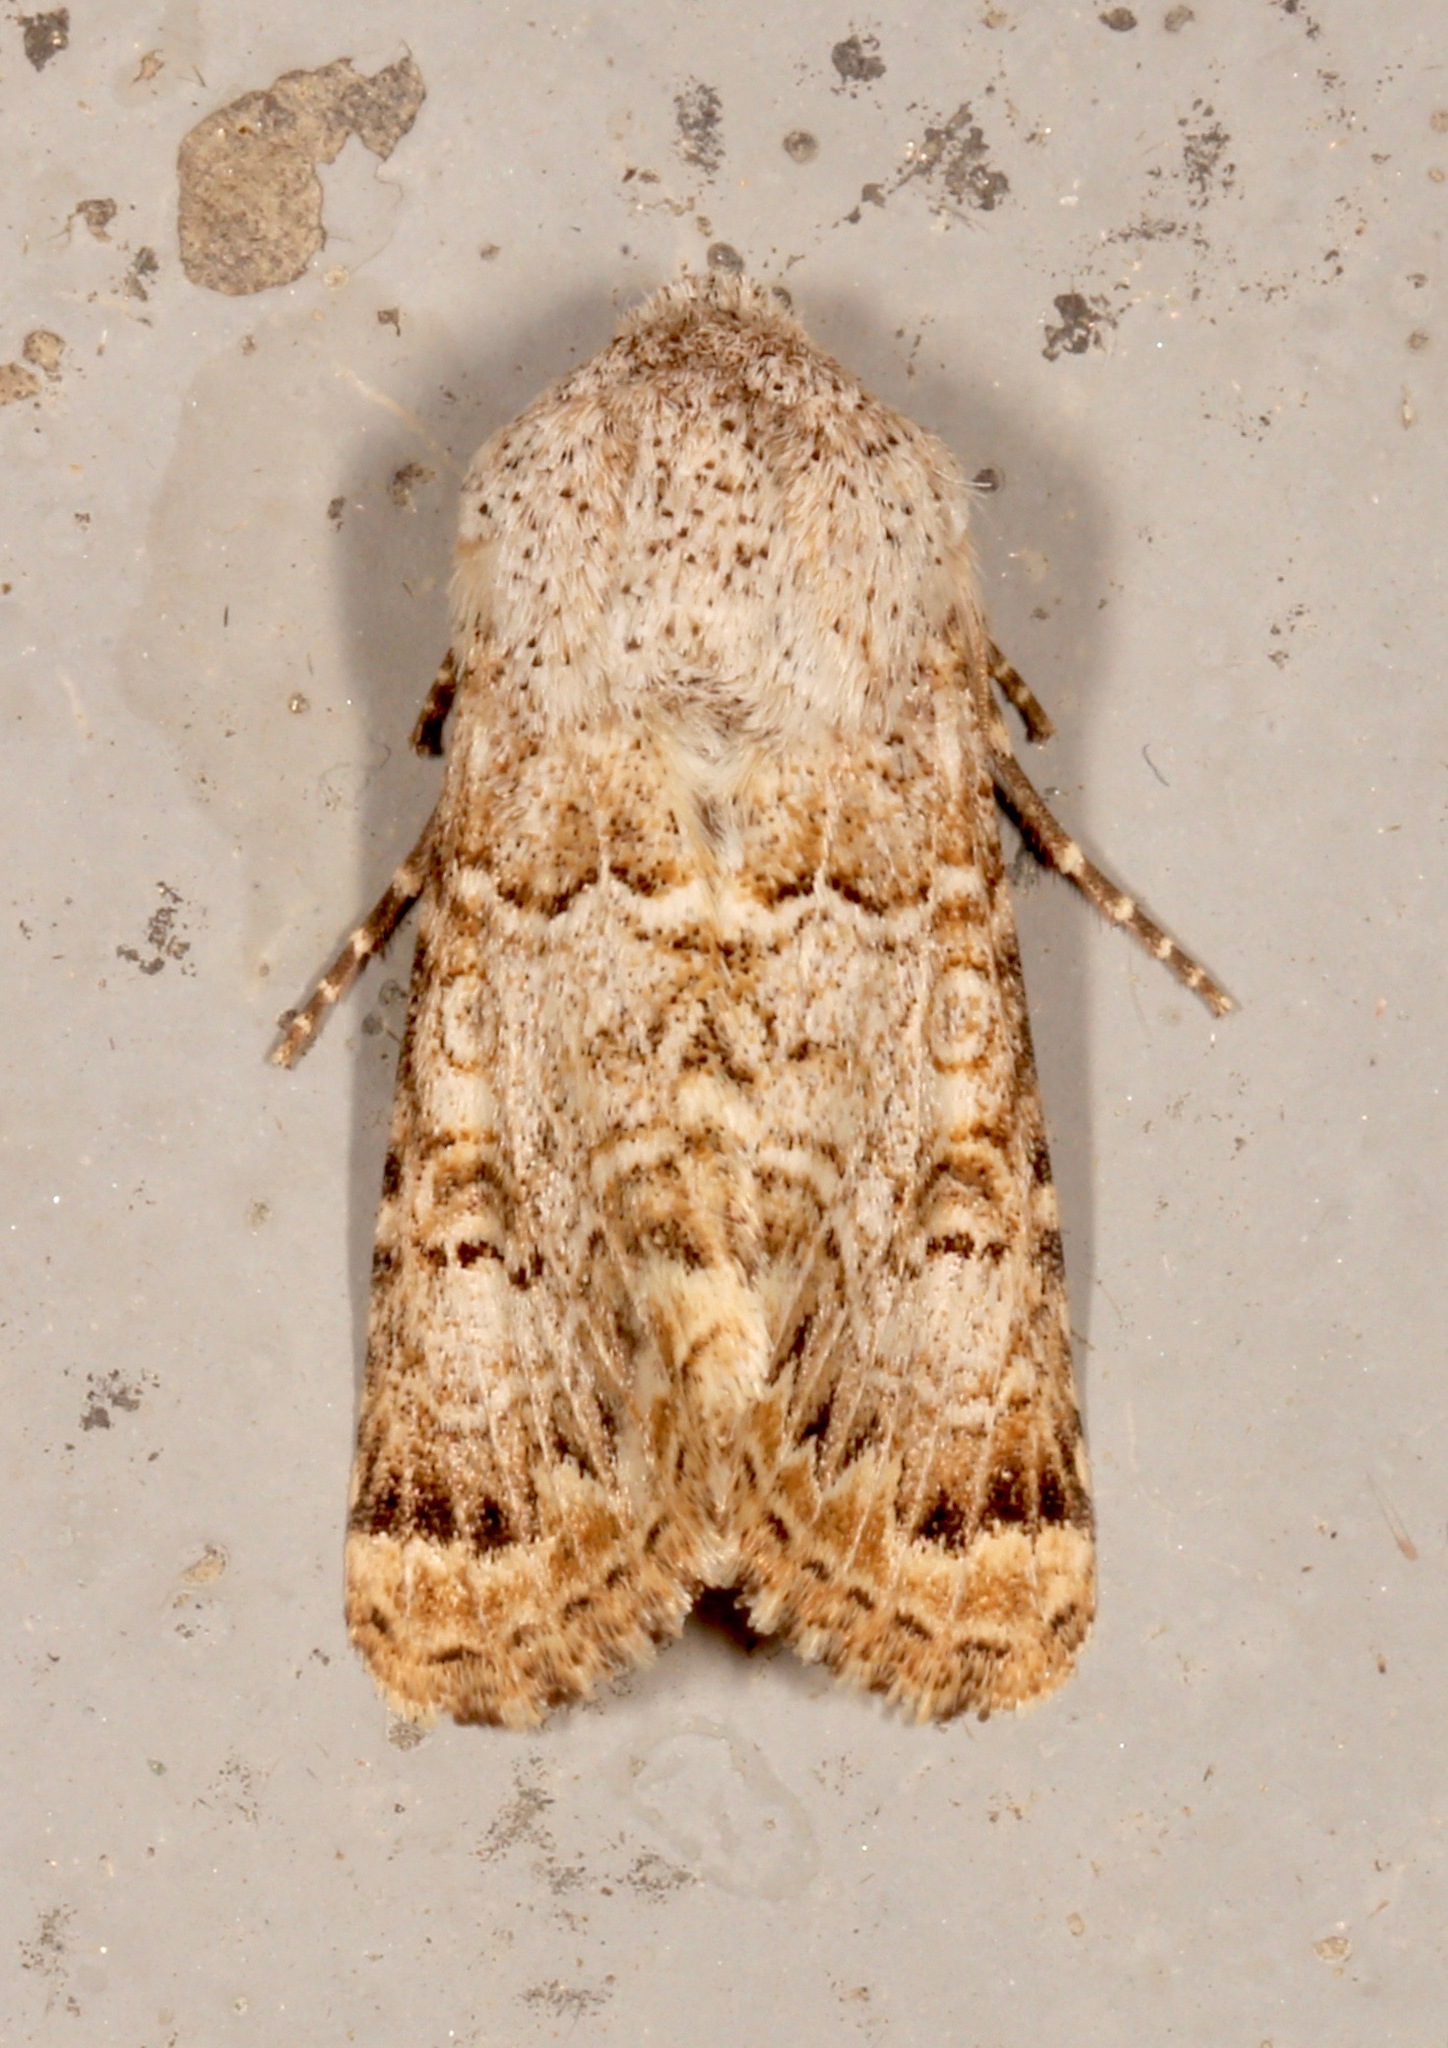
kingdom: Animalia
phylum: Arthropoda
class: Insecta
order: Lepidoptera
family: Noctuidae
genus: Schinia
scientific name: Schinia deserticola
